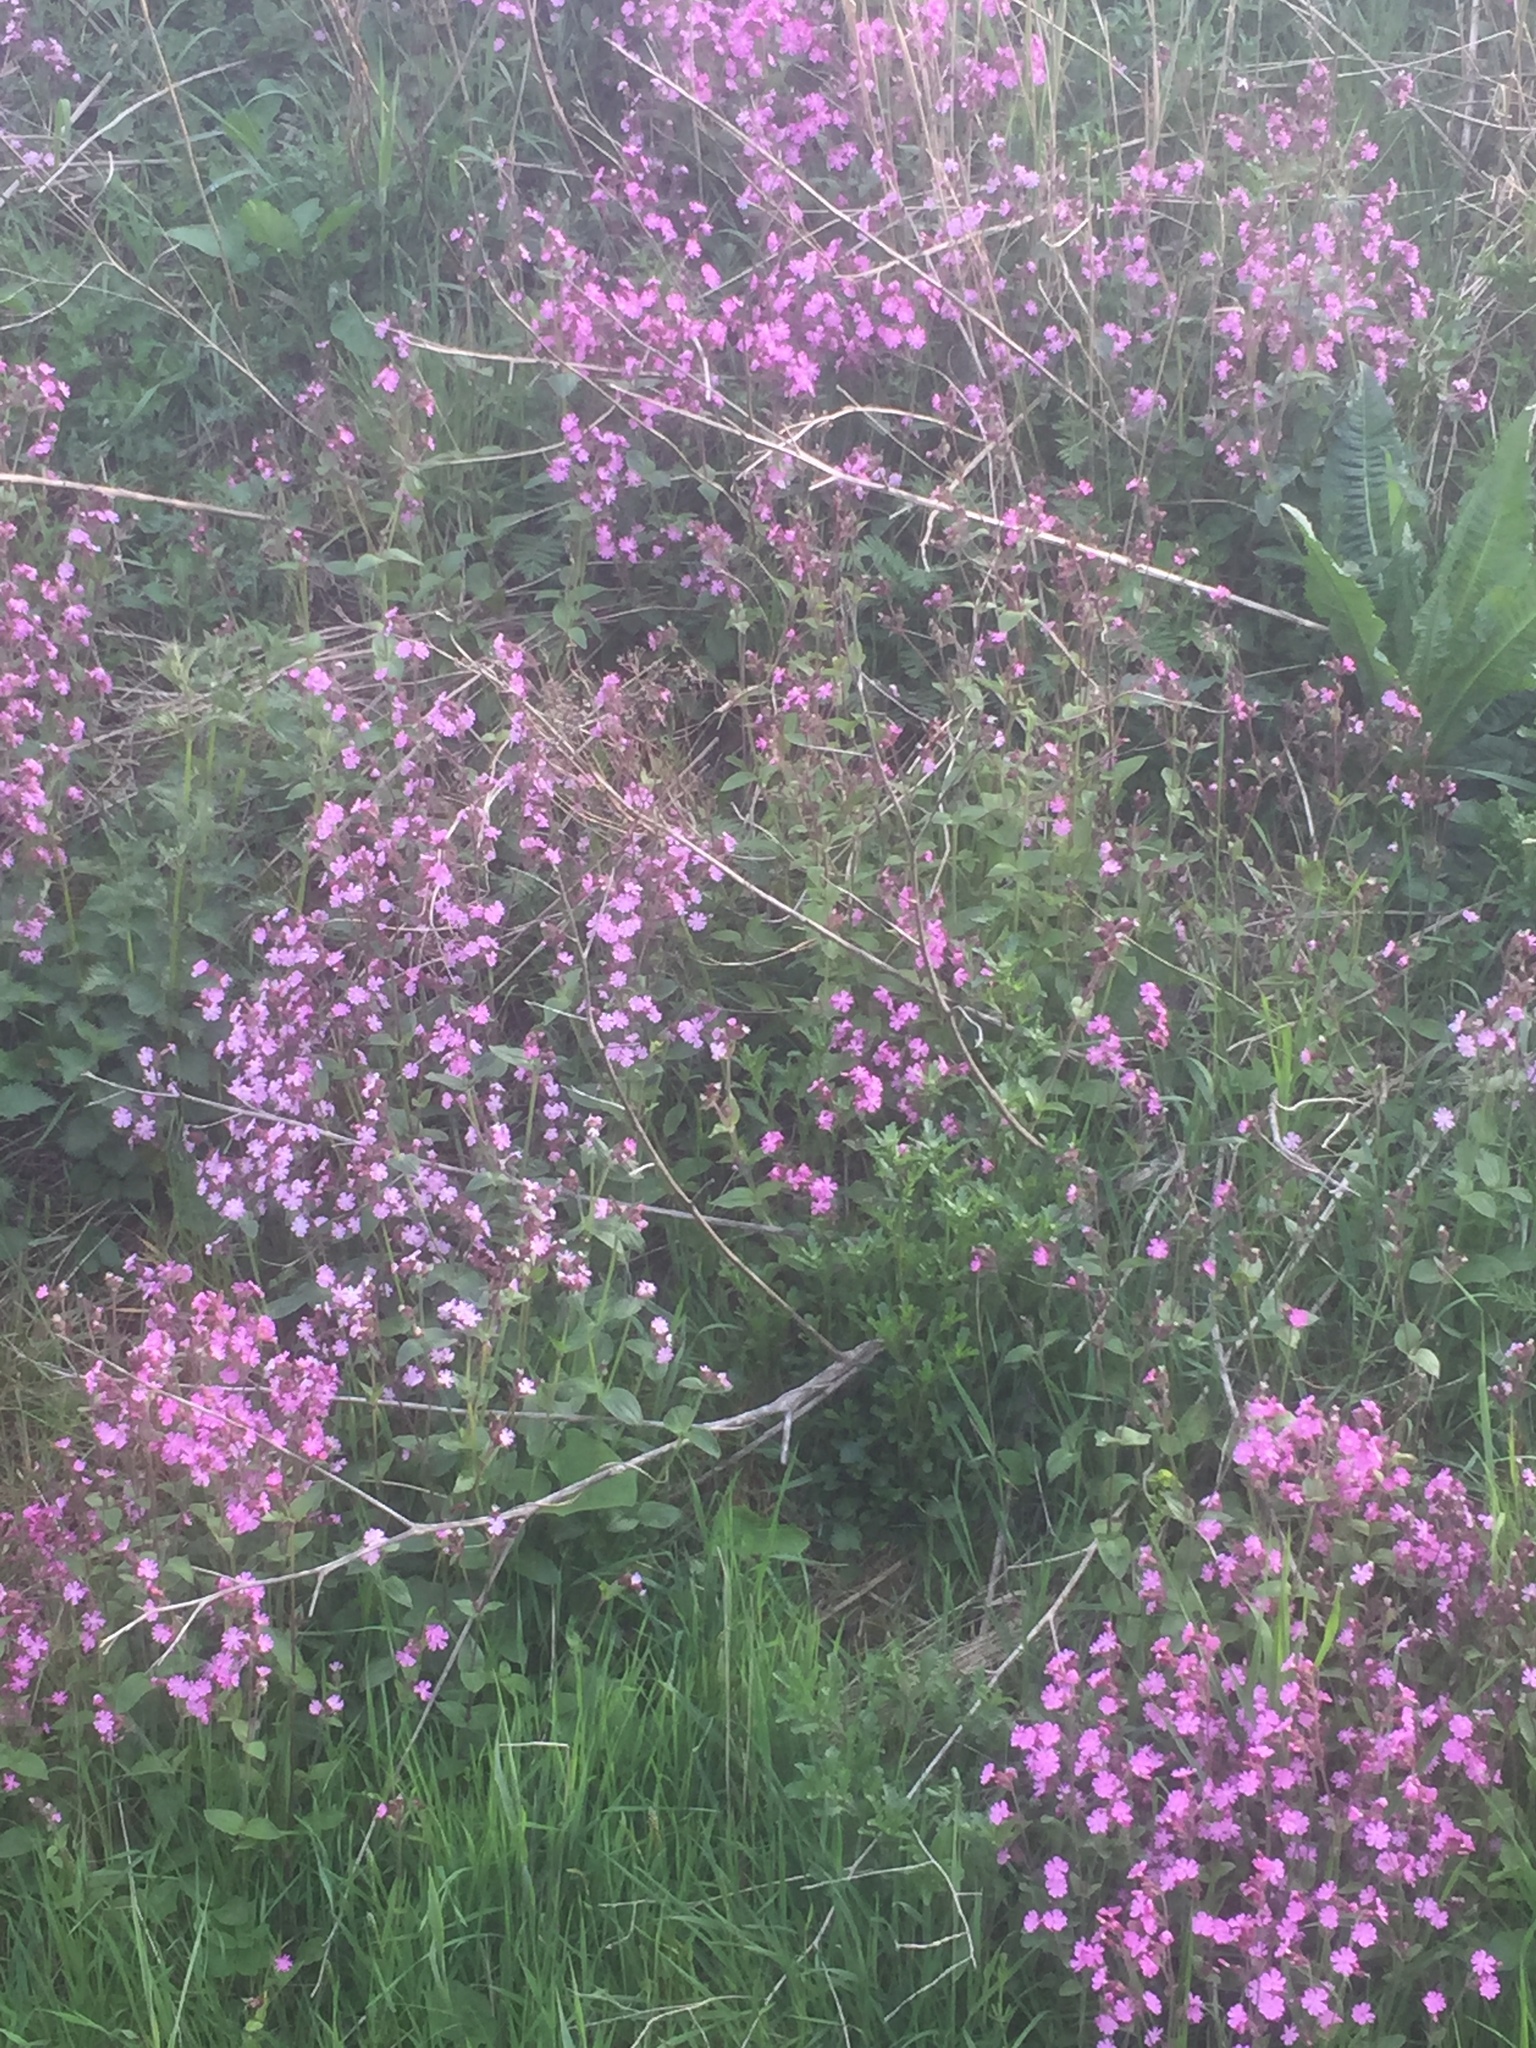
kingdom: Plantae
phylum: Tracheophyta
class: Magnoliopsida
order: Caryophyllales
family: Caryophyllaceae
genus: Silene
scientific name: Silene dioica
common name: Red campion
